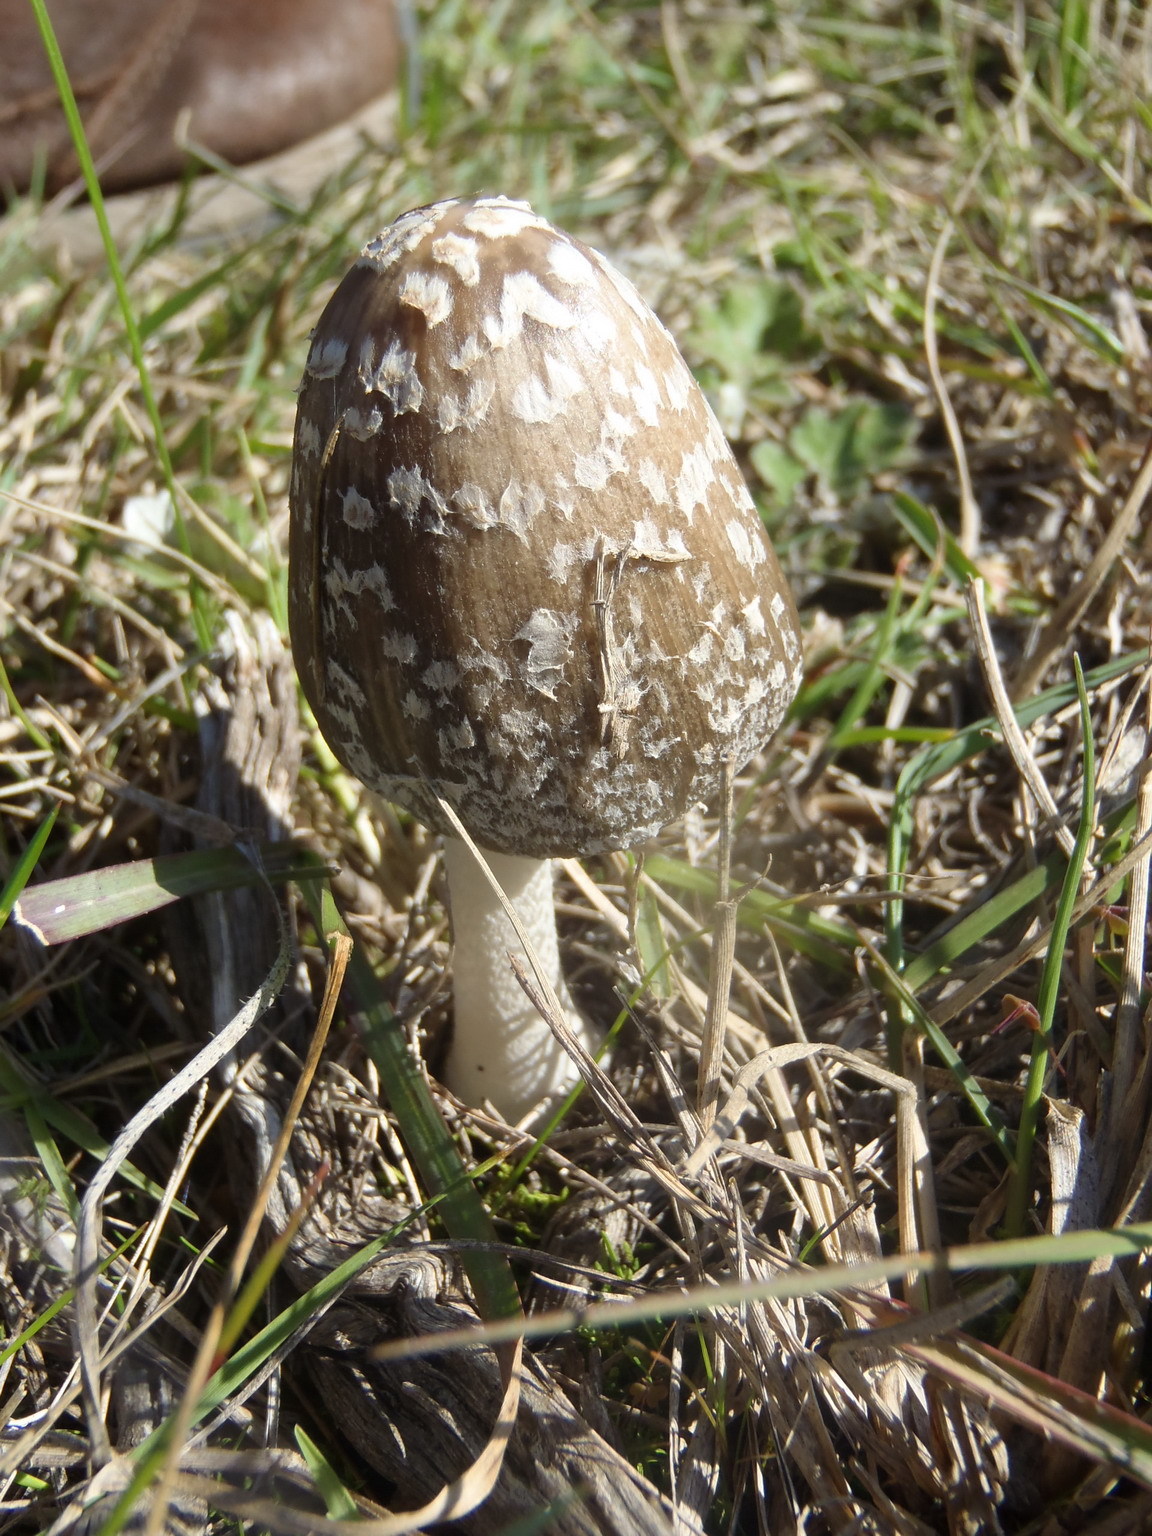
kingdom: Fungi
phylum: Basidiomycota
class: Agaricomycetes
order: Agaricales
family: Psathyrellaceae
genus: Coprinopsis
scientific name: Coprinopsis picacea
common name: Magpie inkcap
